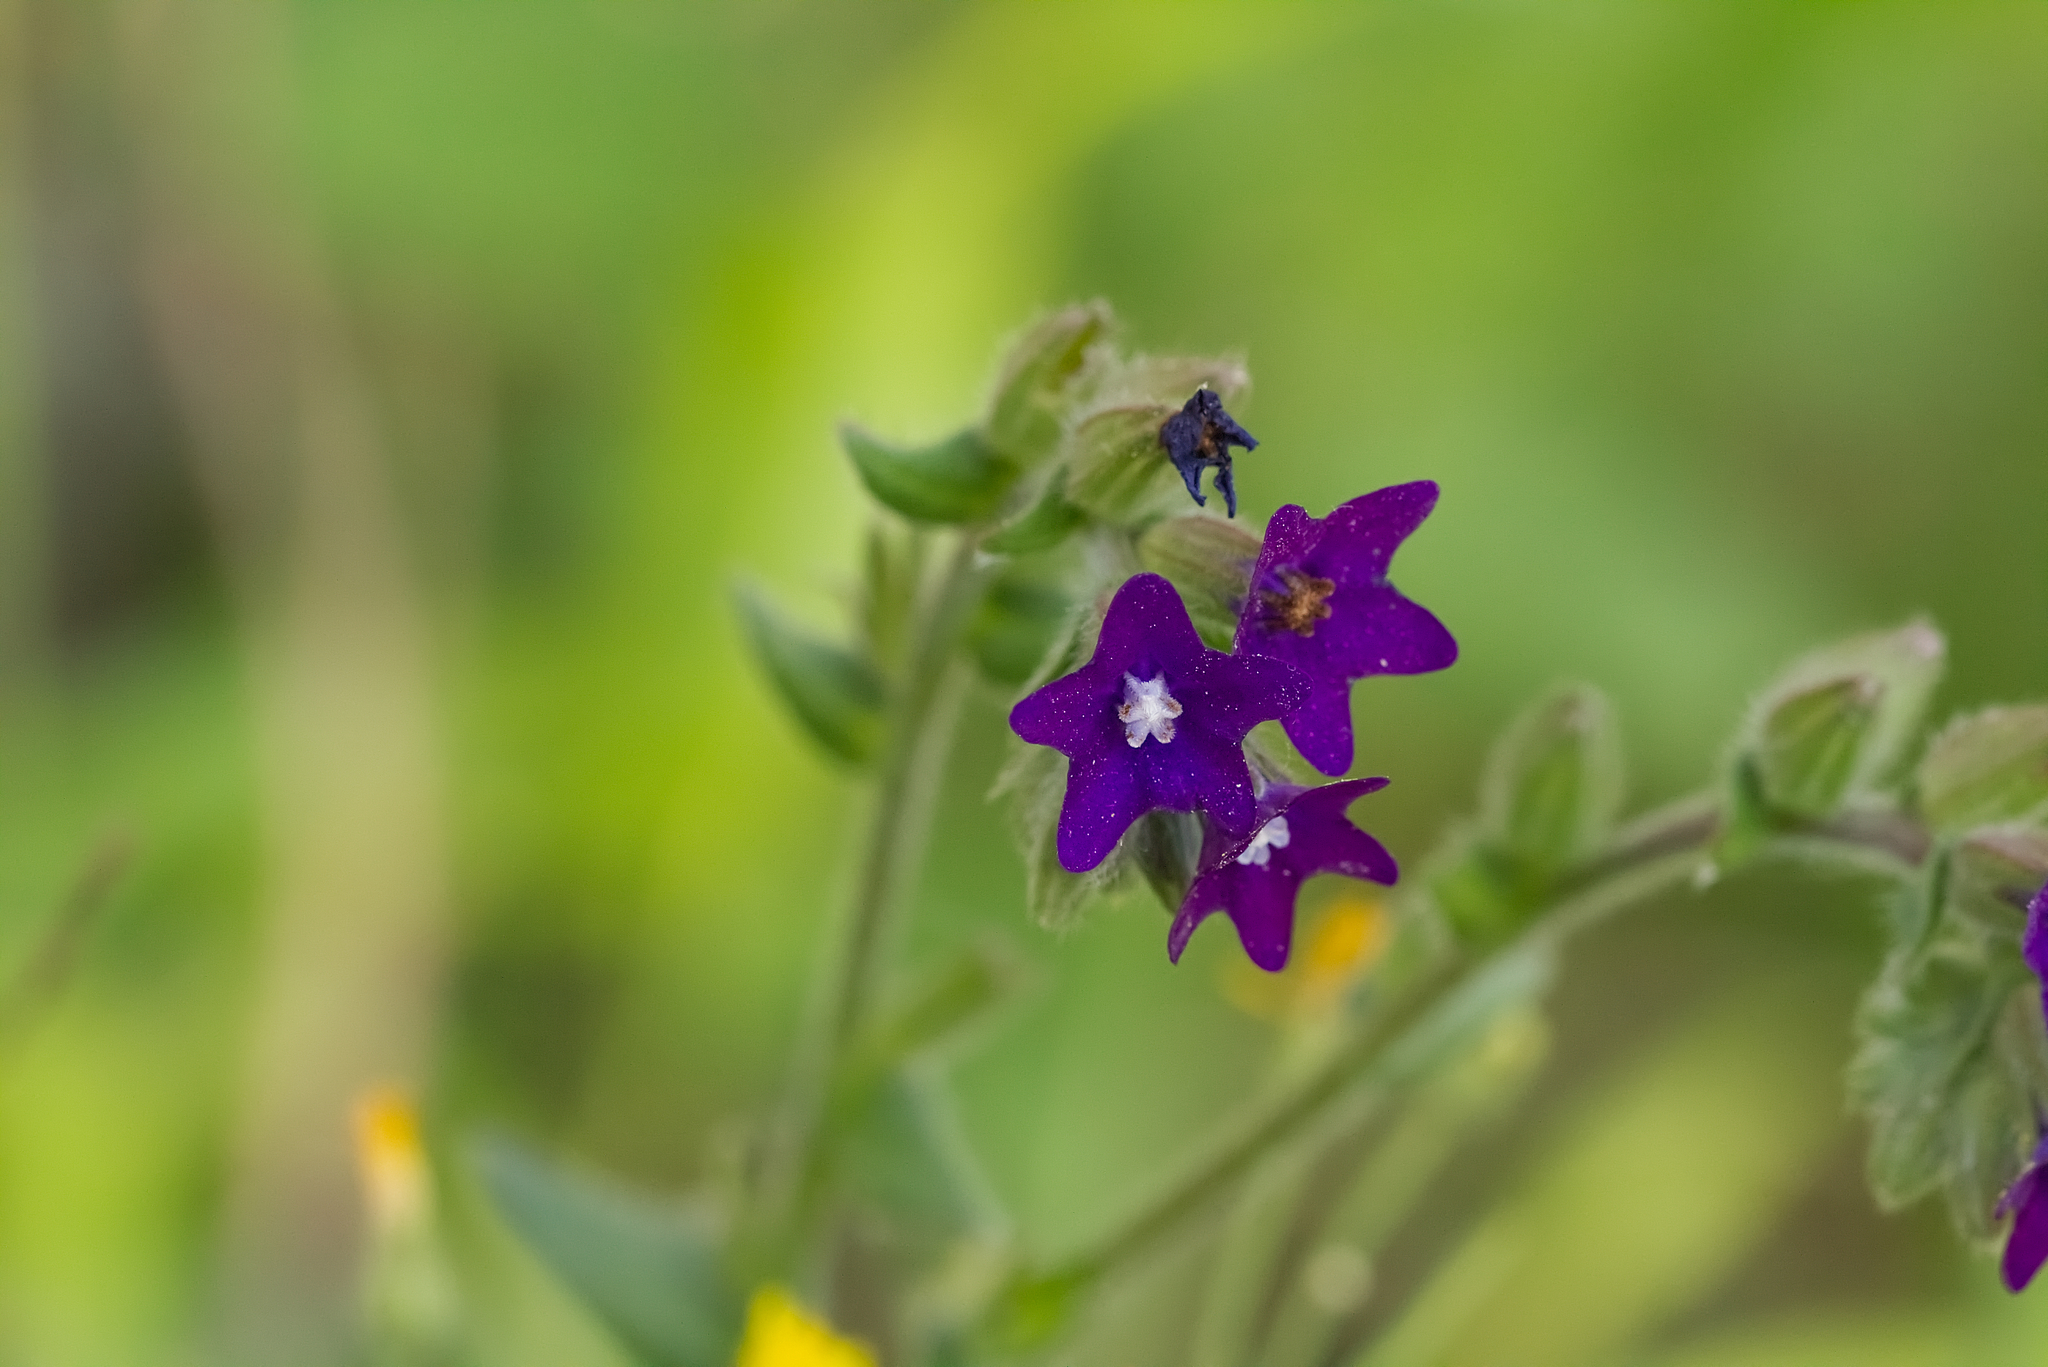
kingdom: Plantae
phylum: Tracheophyta
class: Magnoliopsida
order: Boraginales
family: Boraginaceae
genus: Anchusa
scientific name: Anchusa officinalis
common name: Alkanet
